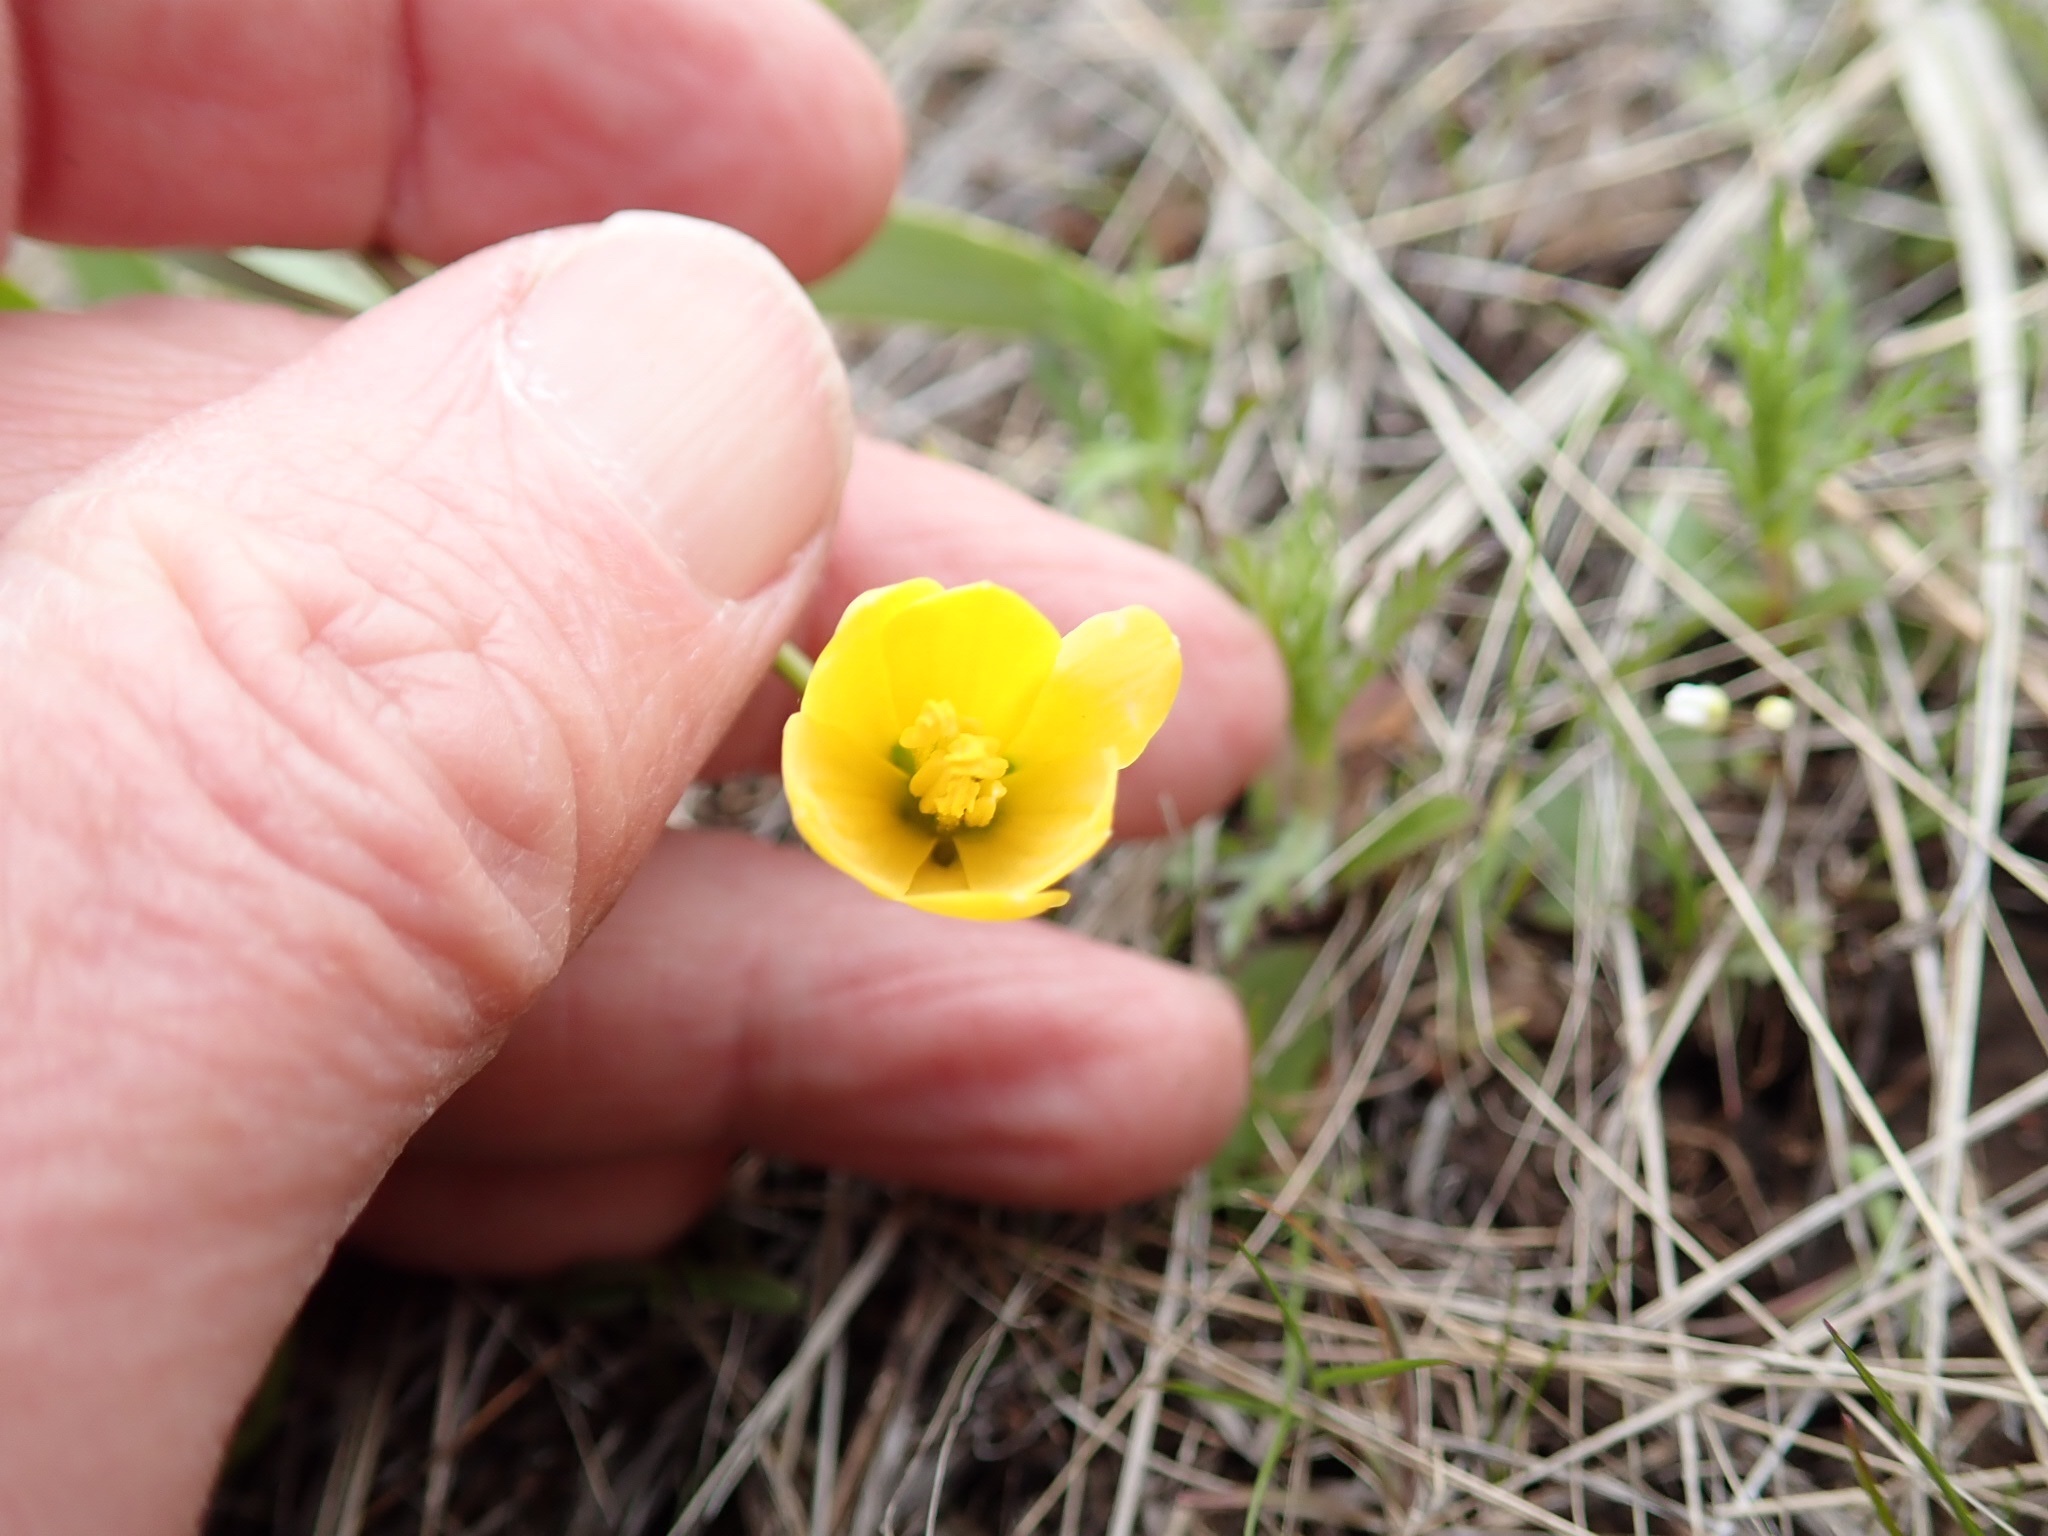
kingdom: Plantae
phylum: Tracheophyta
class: Liliopsida
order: Liliales
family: Liliaceae
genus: Fritillaria
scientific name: Fritillaria pudica
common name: Yellow fritillary
